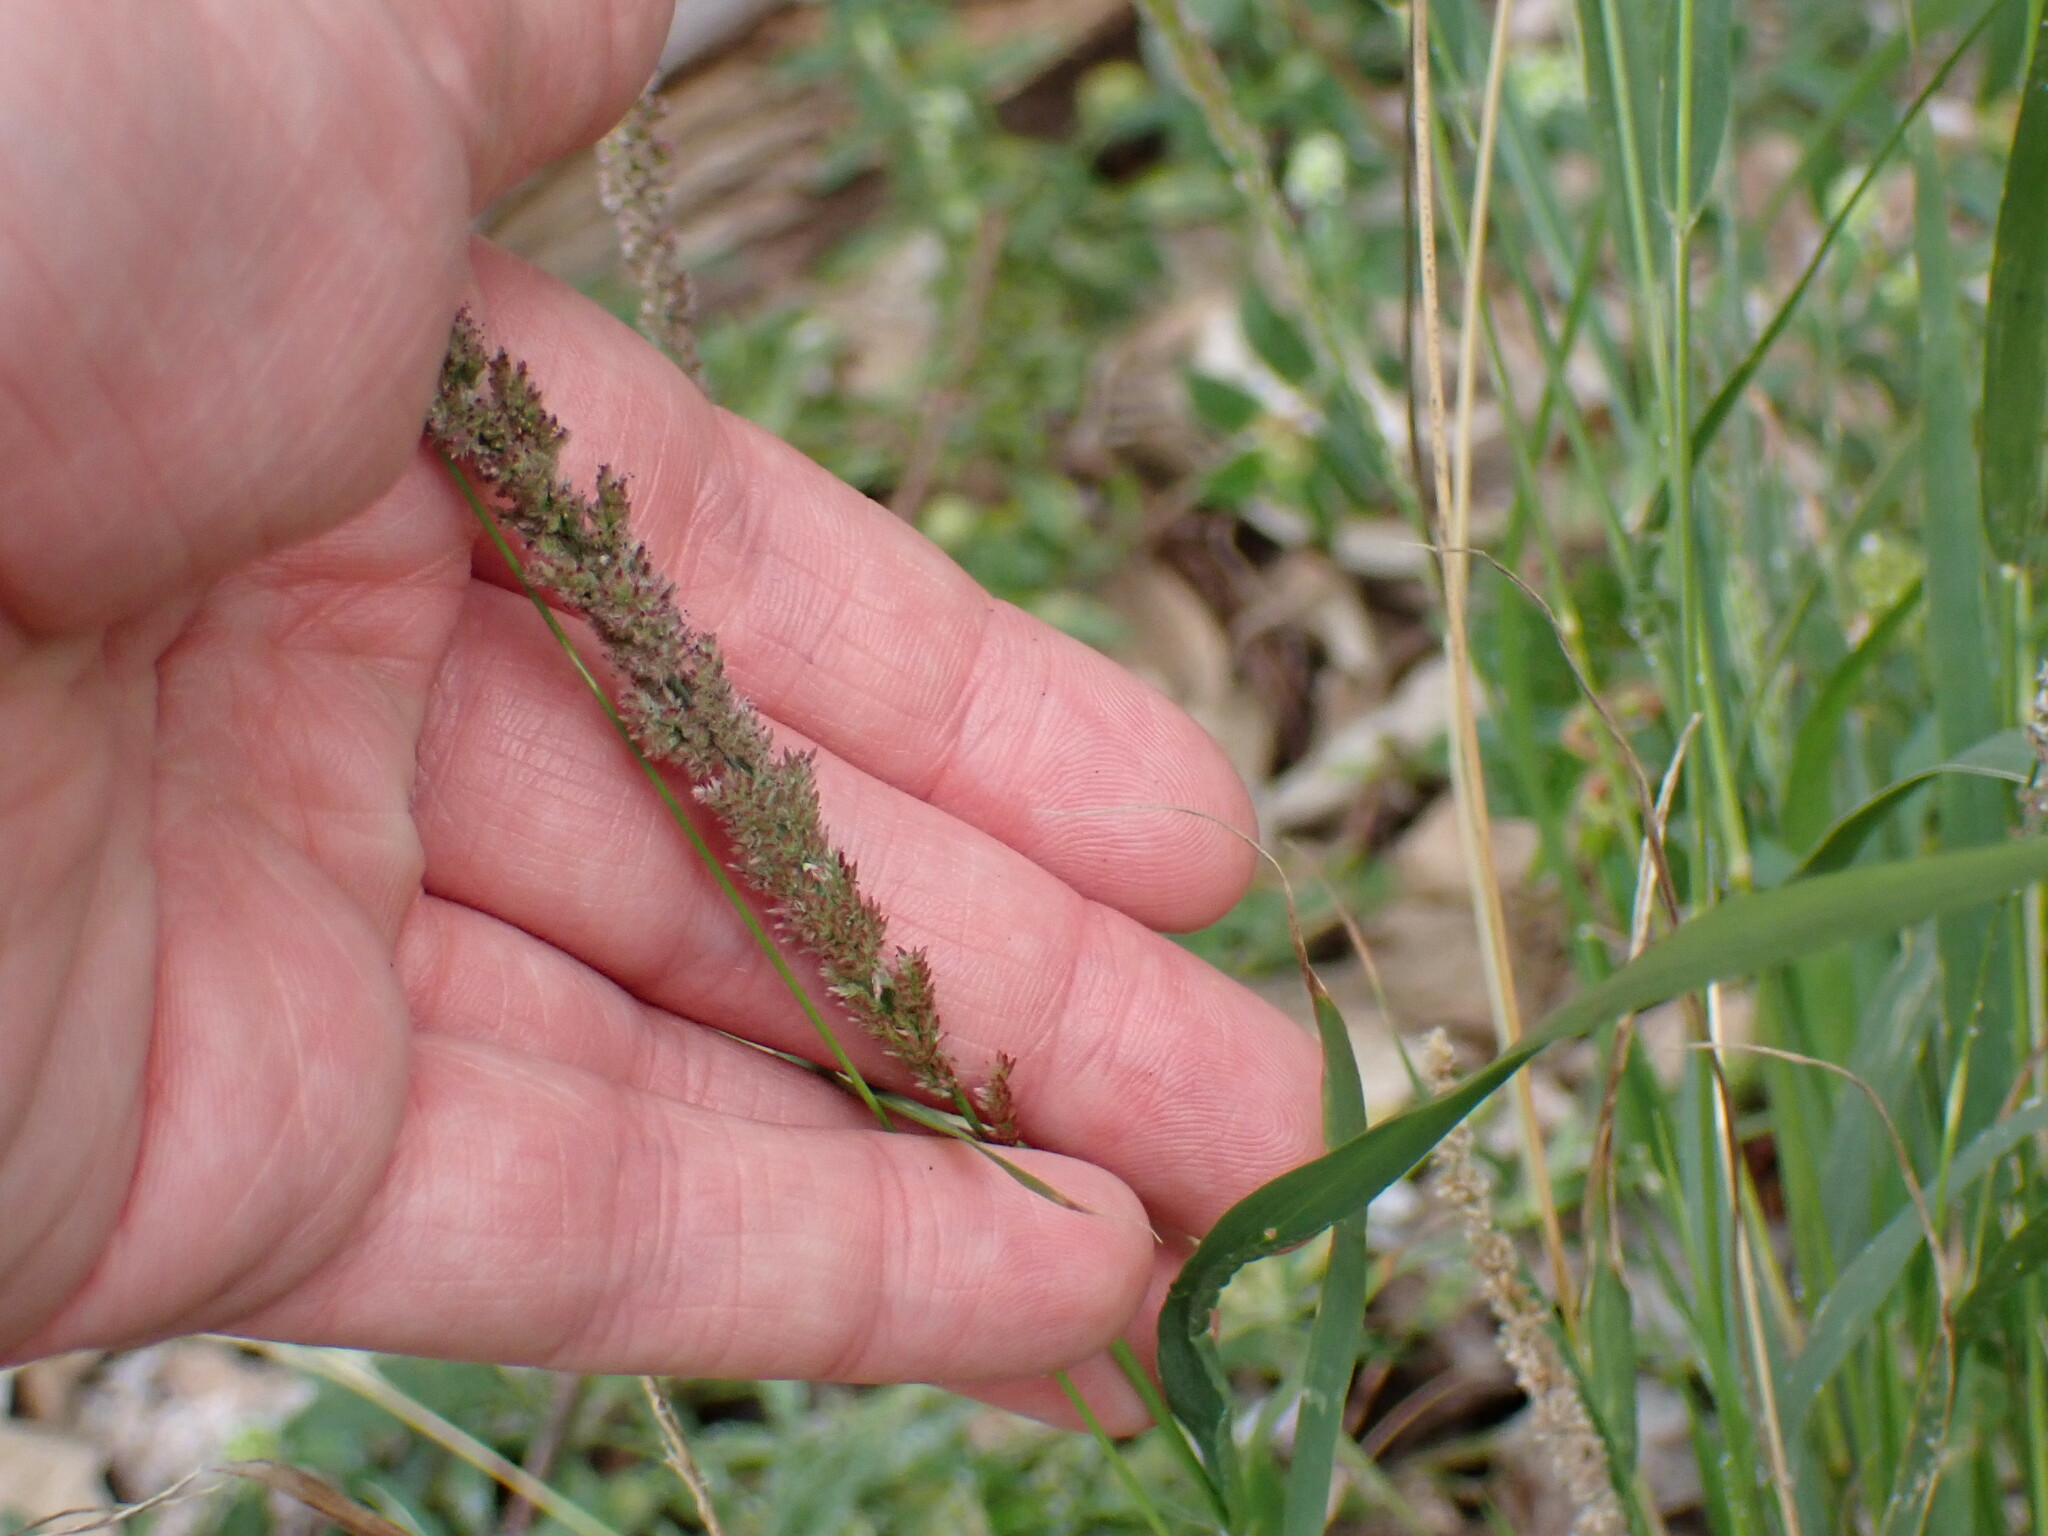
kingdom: Plantae
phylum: Tracheophyta
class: Liliopsida
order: Poales
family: Poaceae
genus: Eragrostis
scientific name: Eragrostis ciliaris
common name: Gophertail lovegrass
